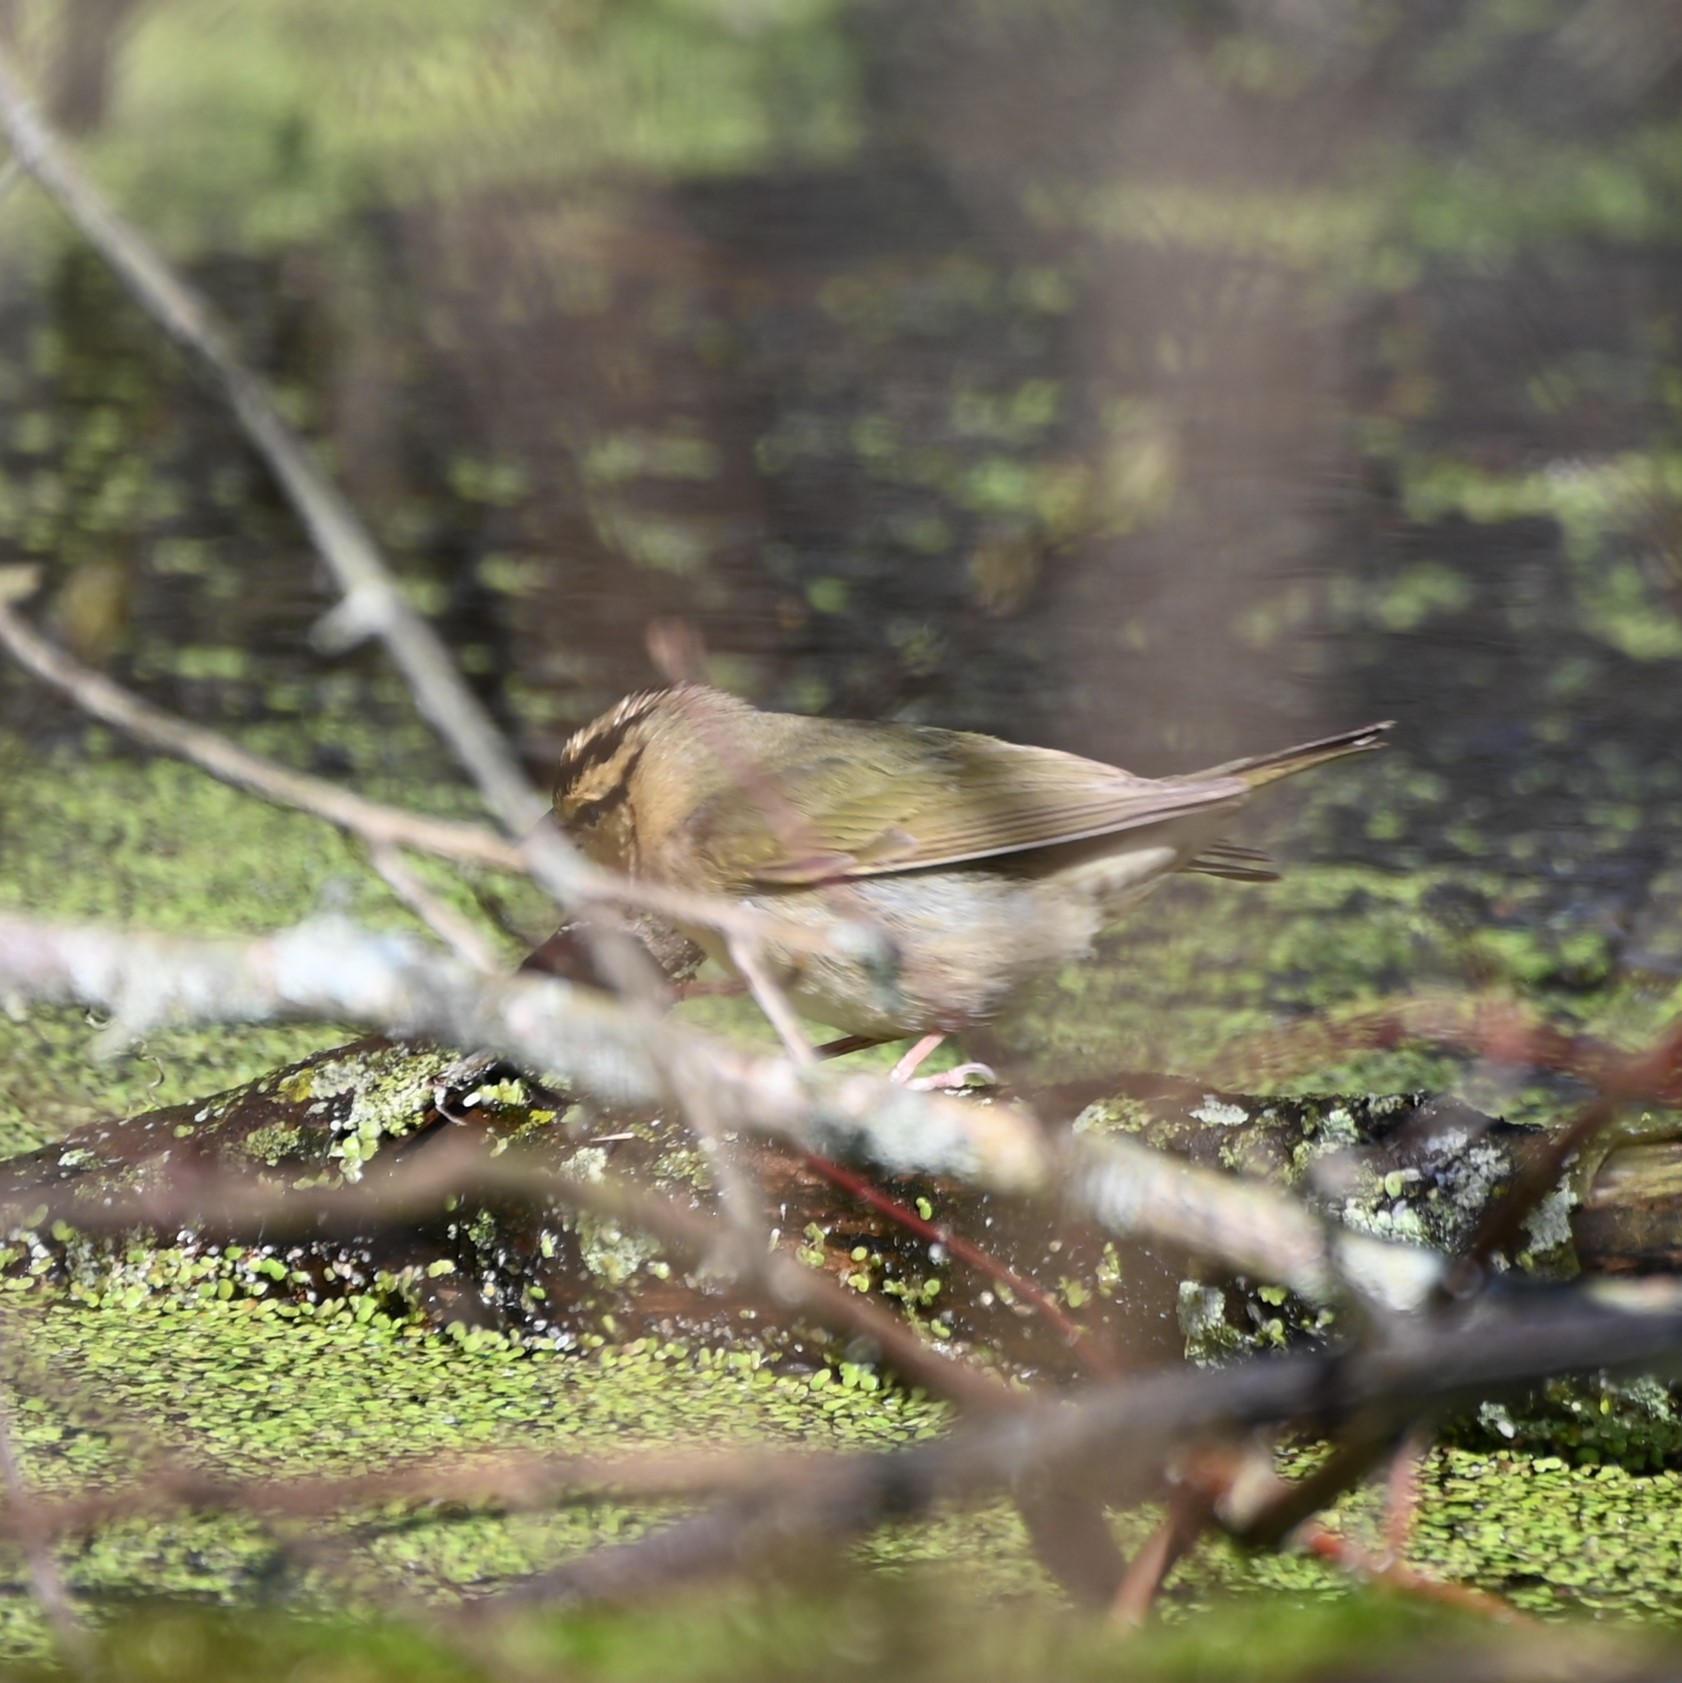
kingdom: Animalia
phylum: Chordata
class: Aves
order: Passeriformes
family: Parulidae
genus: Helmitheros
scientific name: Helmitheros vermivorum
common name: Worm-eating warbler
